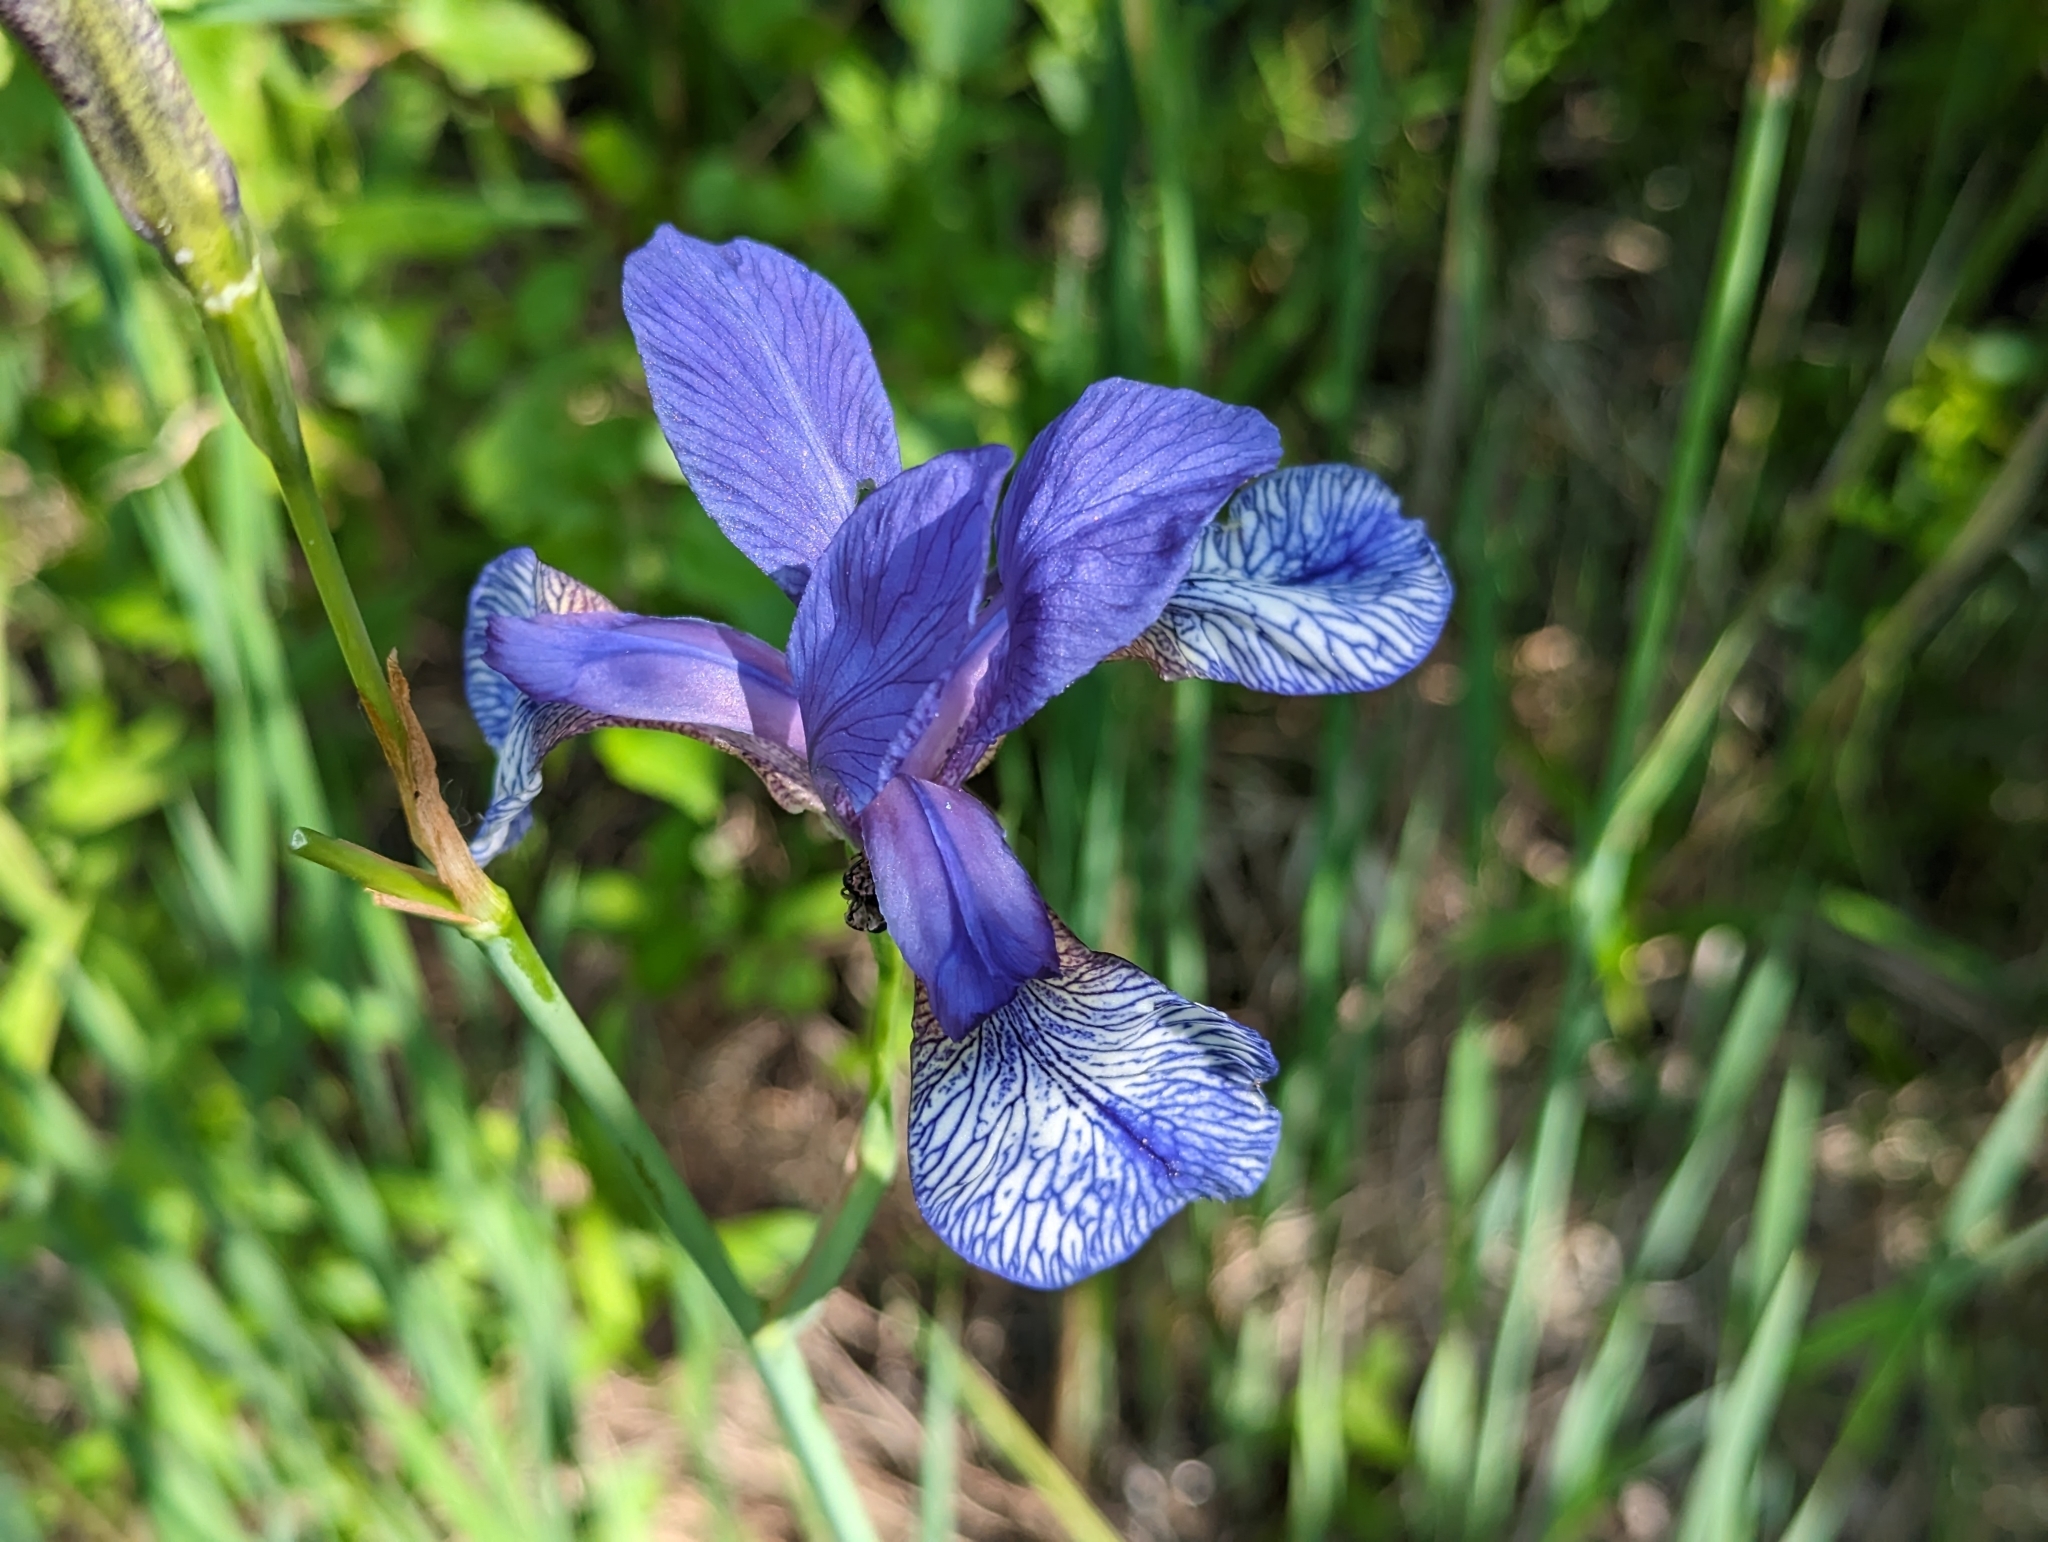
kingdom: Plantae
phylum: Tracheophyta
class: Liliopsida
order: Asparagales
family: Iridaceae
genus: Iris
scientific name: Iris sibirica
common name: Siberian iris
